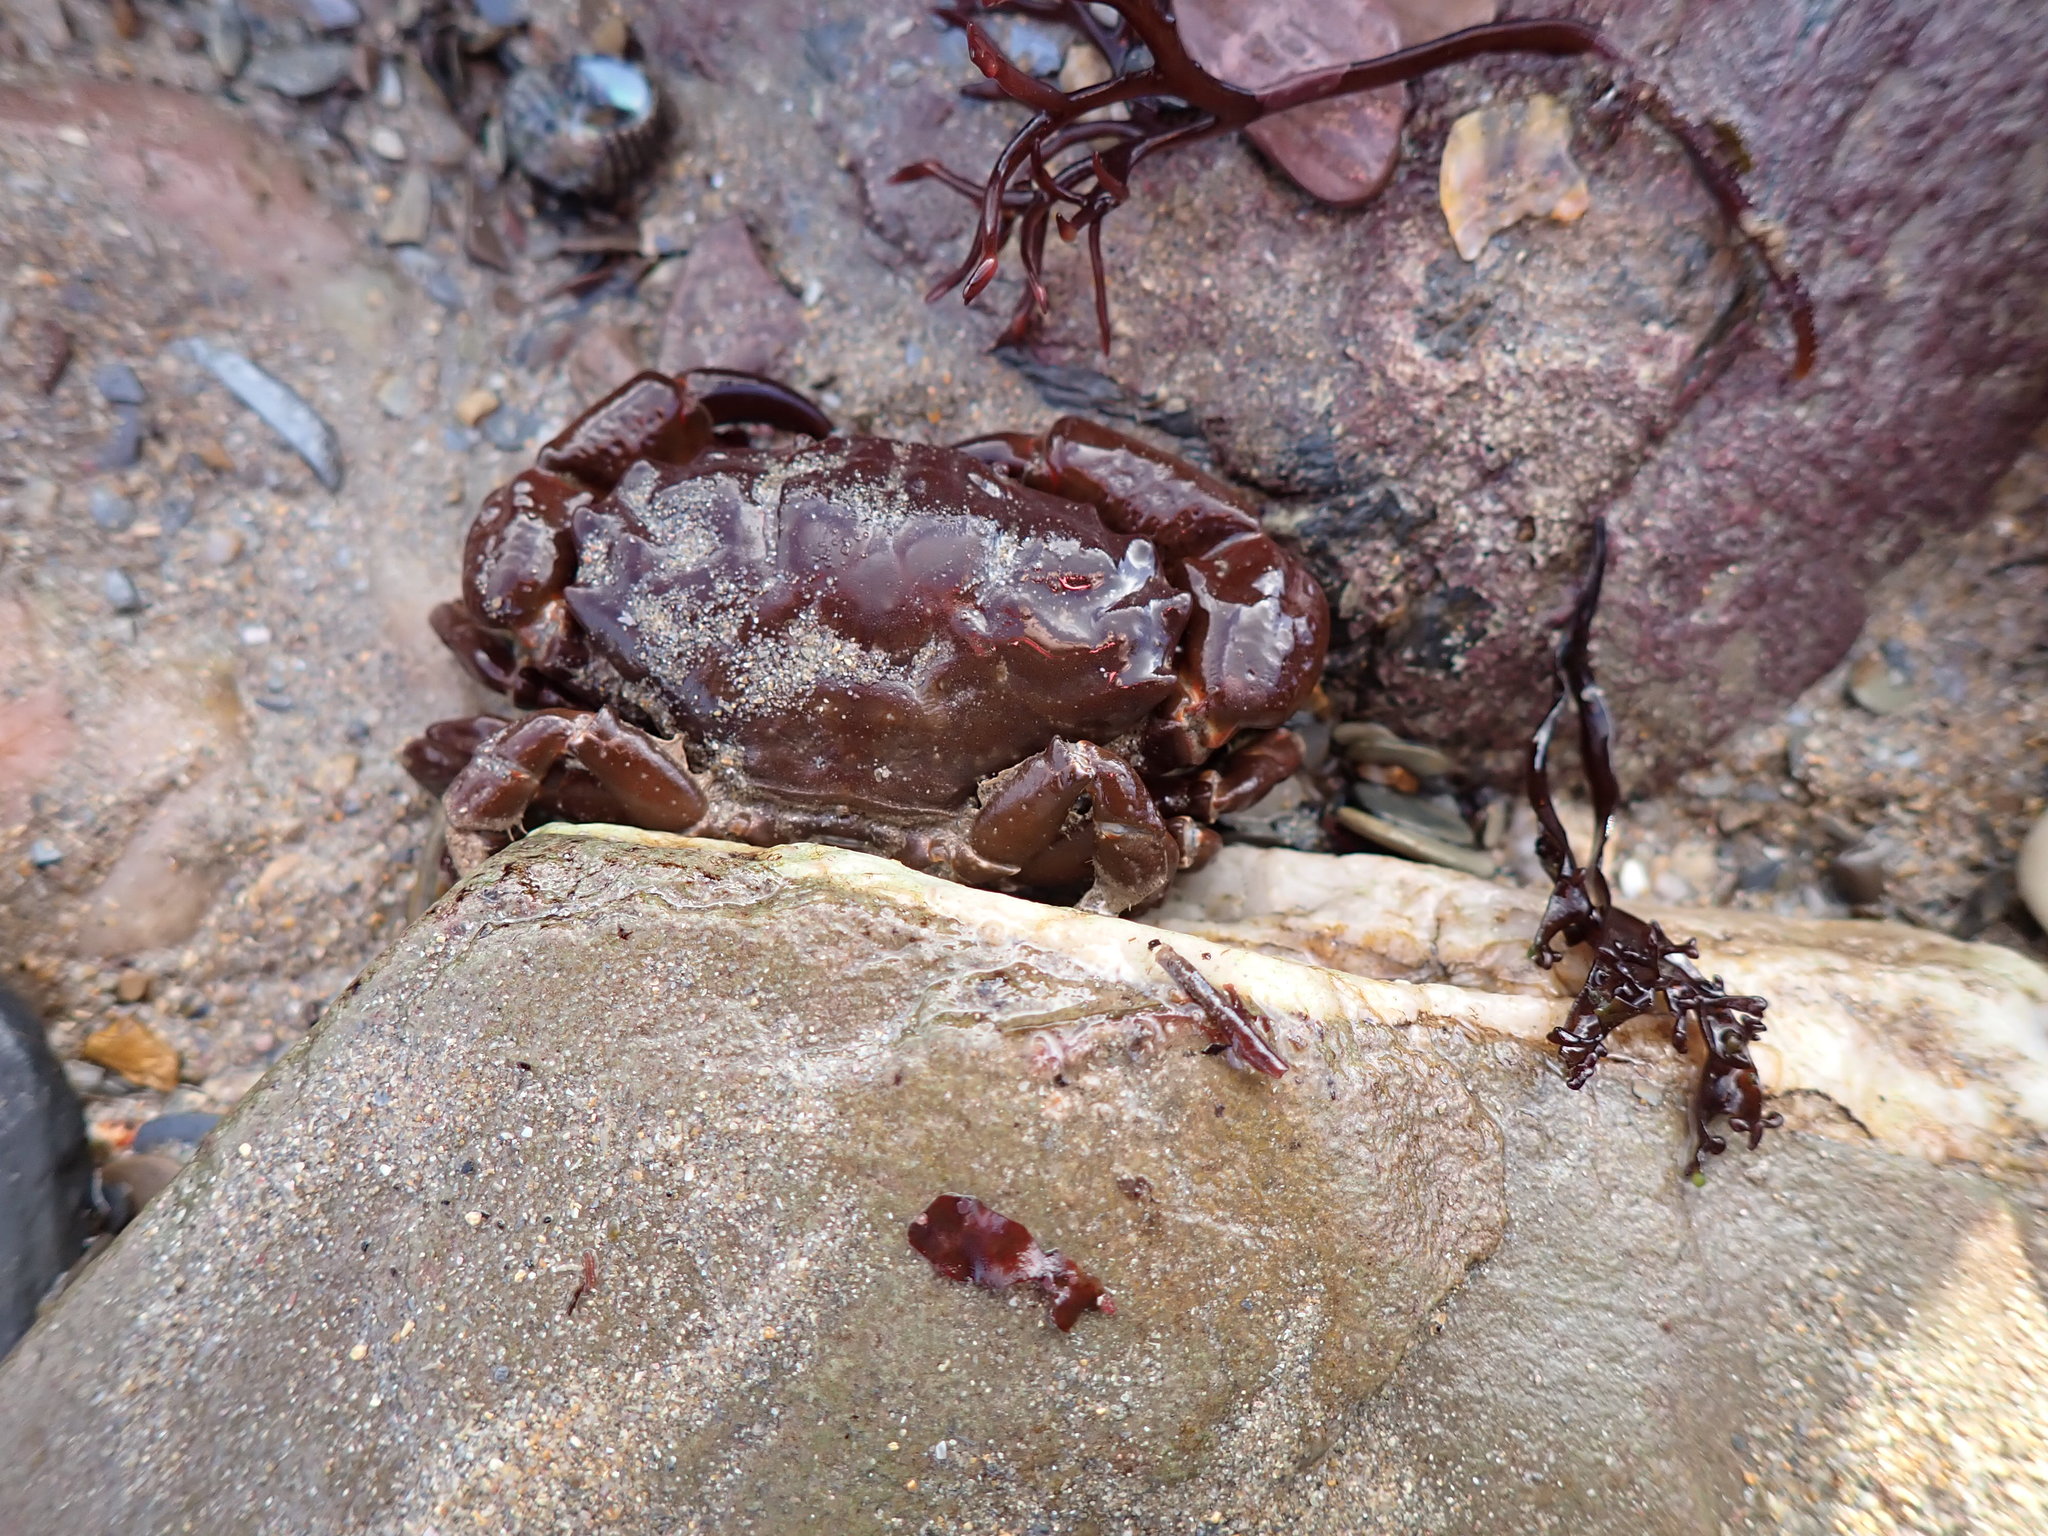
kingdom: Animalia
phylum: Arthropoda
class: Malacostraca
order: Decapoda
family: Xanthidae
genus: Xantho
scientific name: Xantho hydrophilus
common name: Montagu's crab
